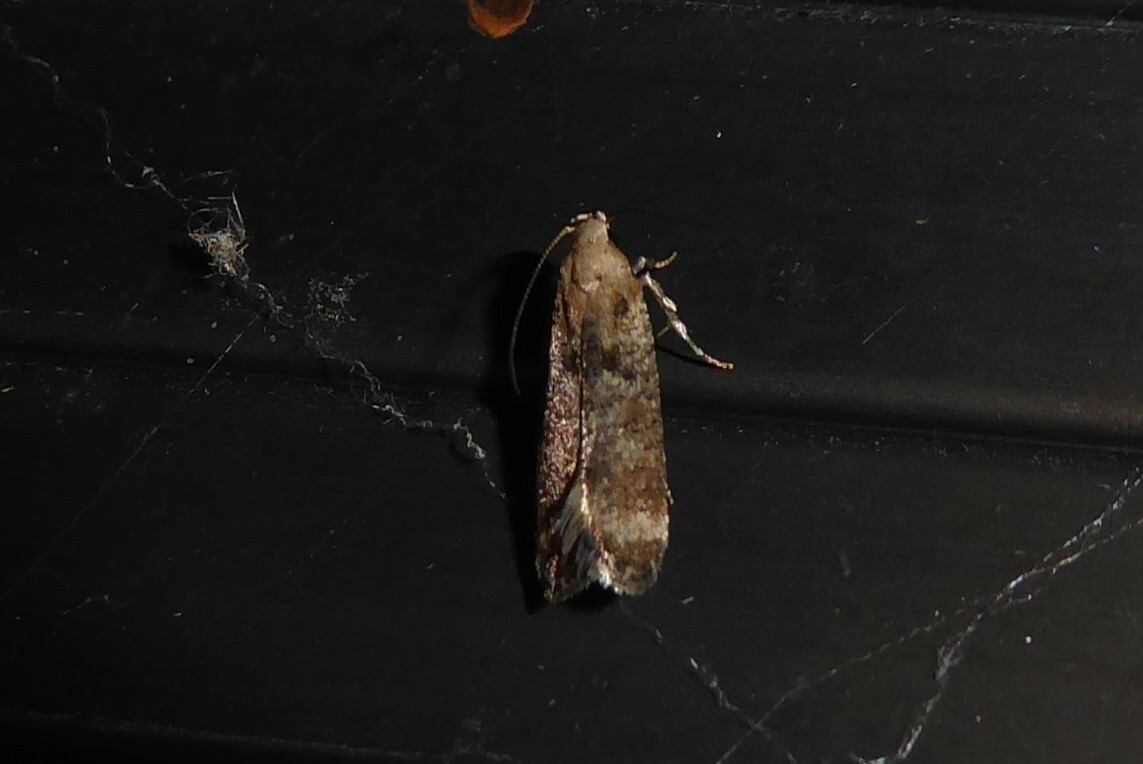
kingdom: Animalia
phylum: Arthropoda
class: Insecta
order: Lepidoptera
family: Gelechiidae
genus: Anisoplaca
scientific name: Anisoplaca acrodactyla
